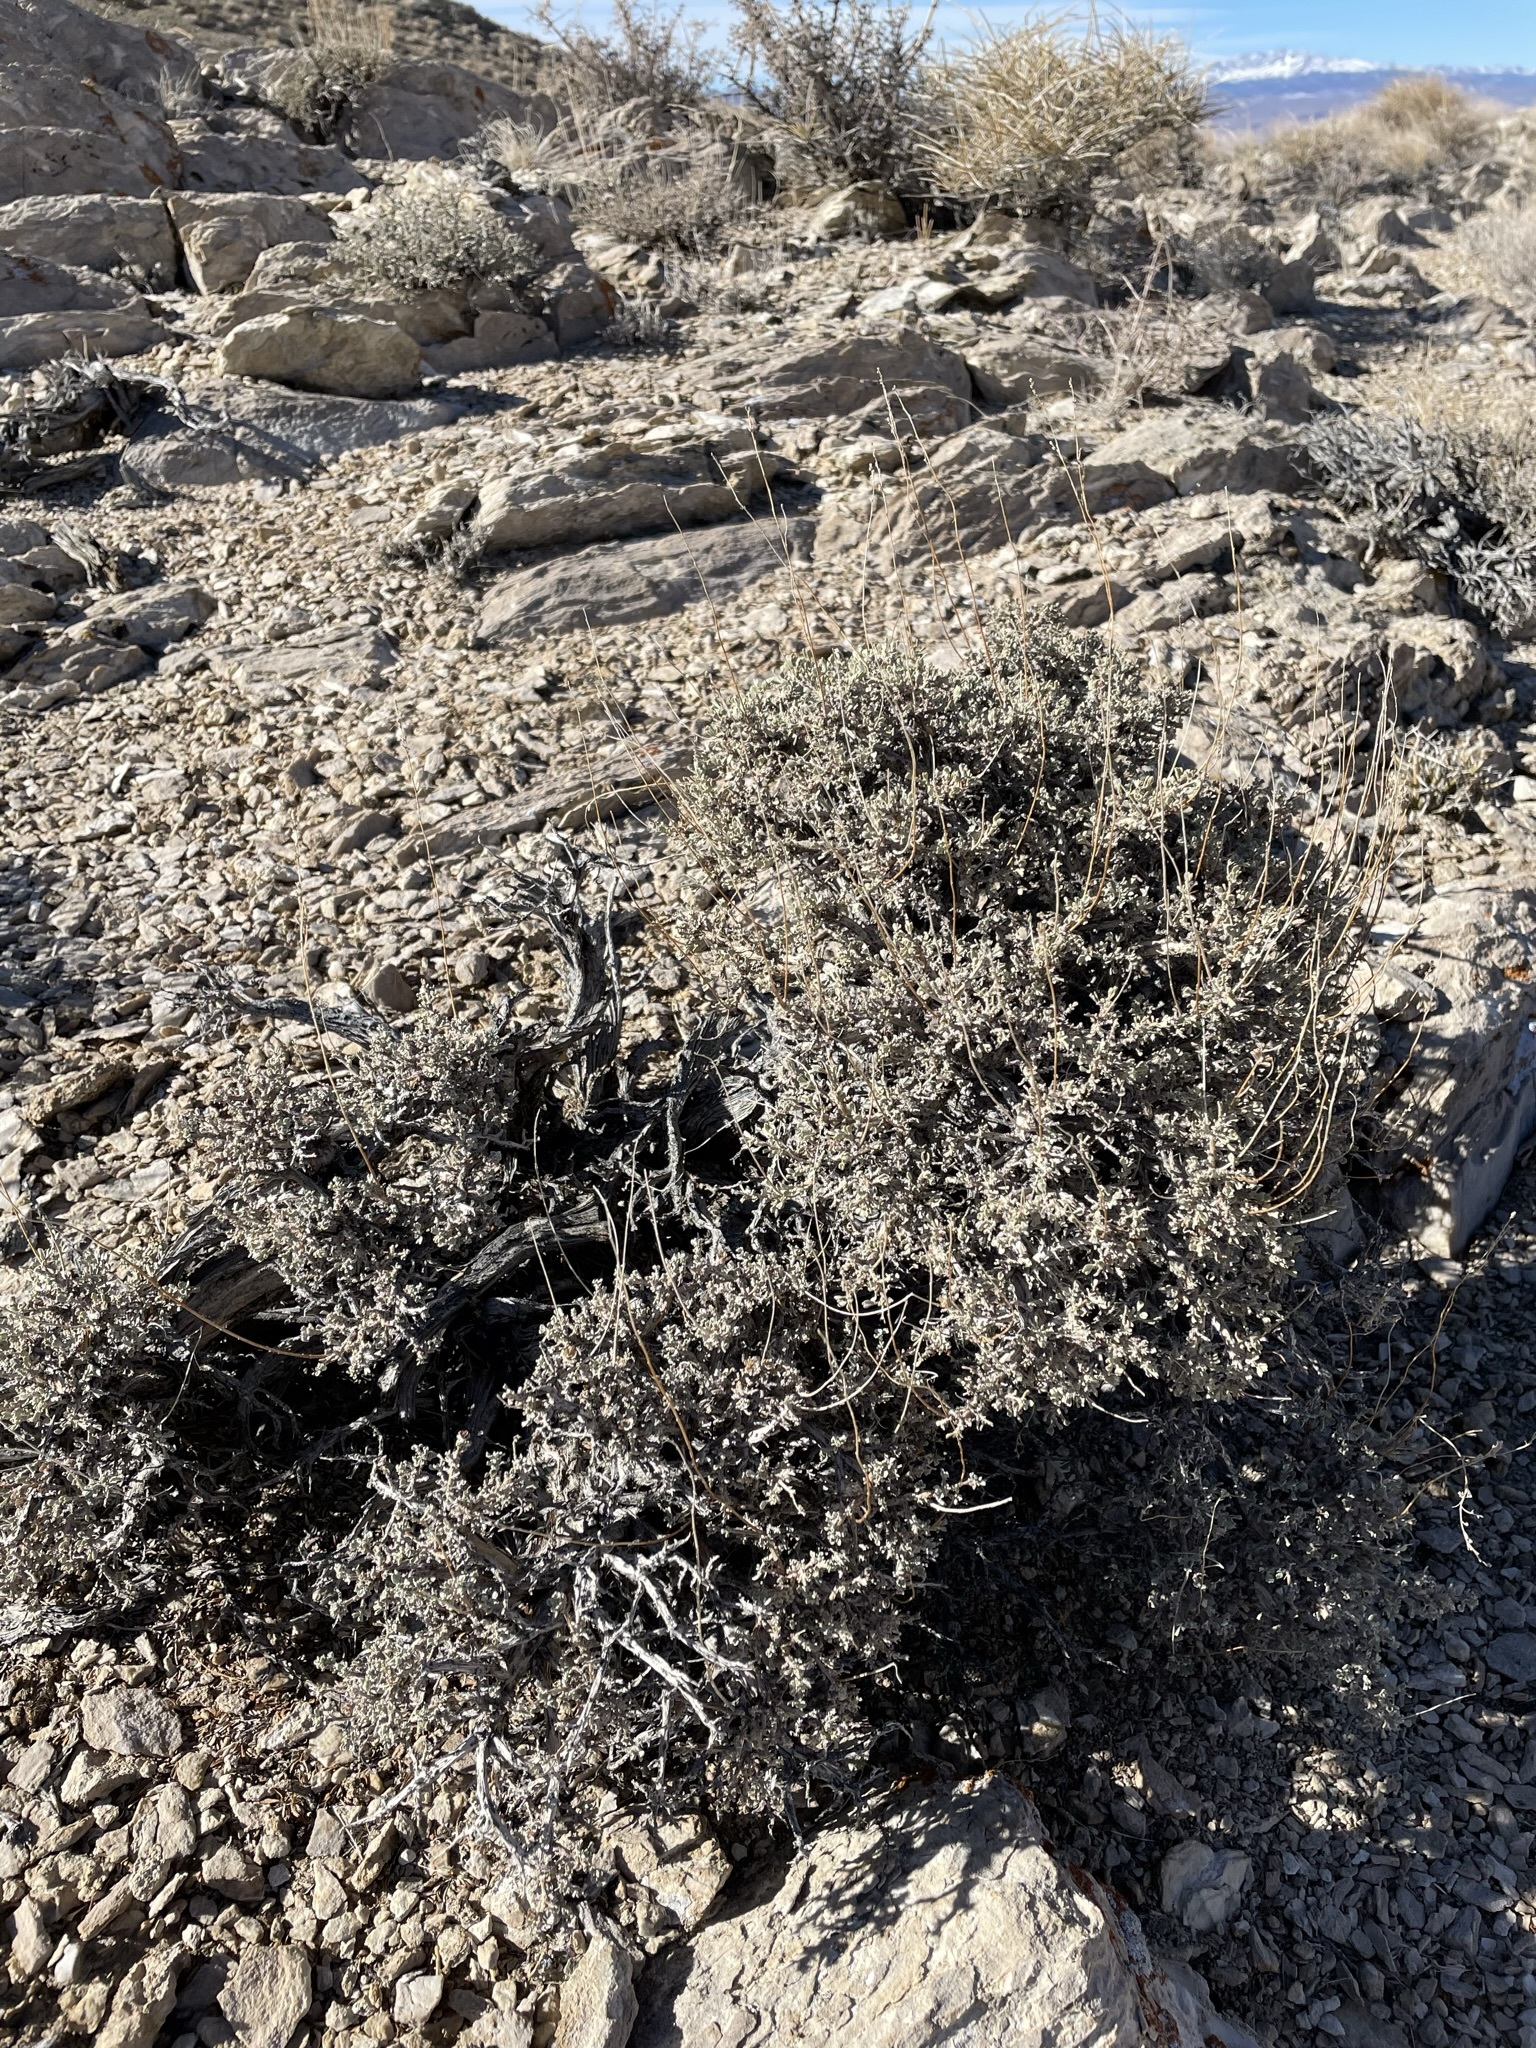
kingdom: Plantae
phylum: Tracheophyta
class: Magnoliopsida
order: Asterales
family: Asteraceae
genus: Artemisia
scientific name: Artemisia nova
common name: Black-sage
